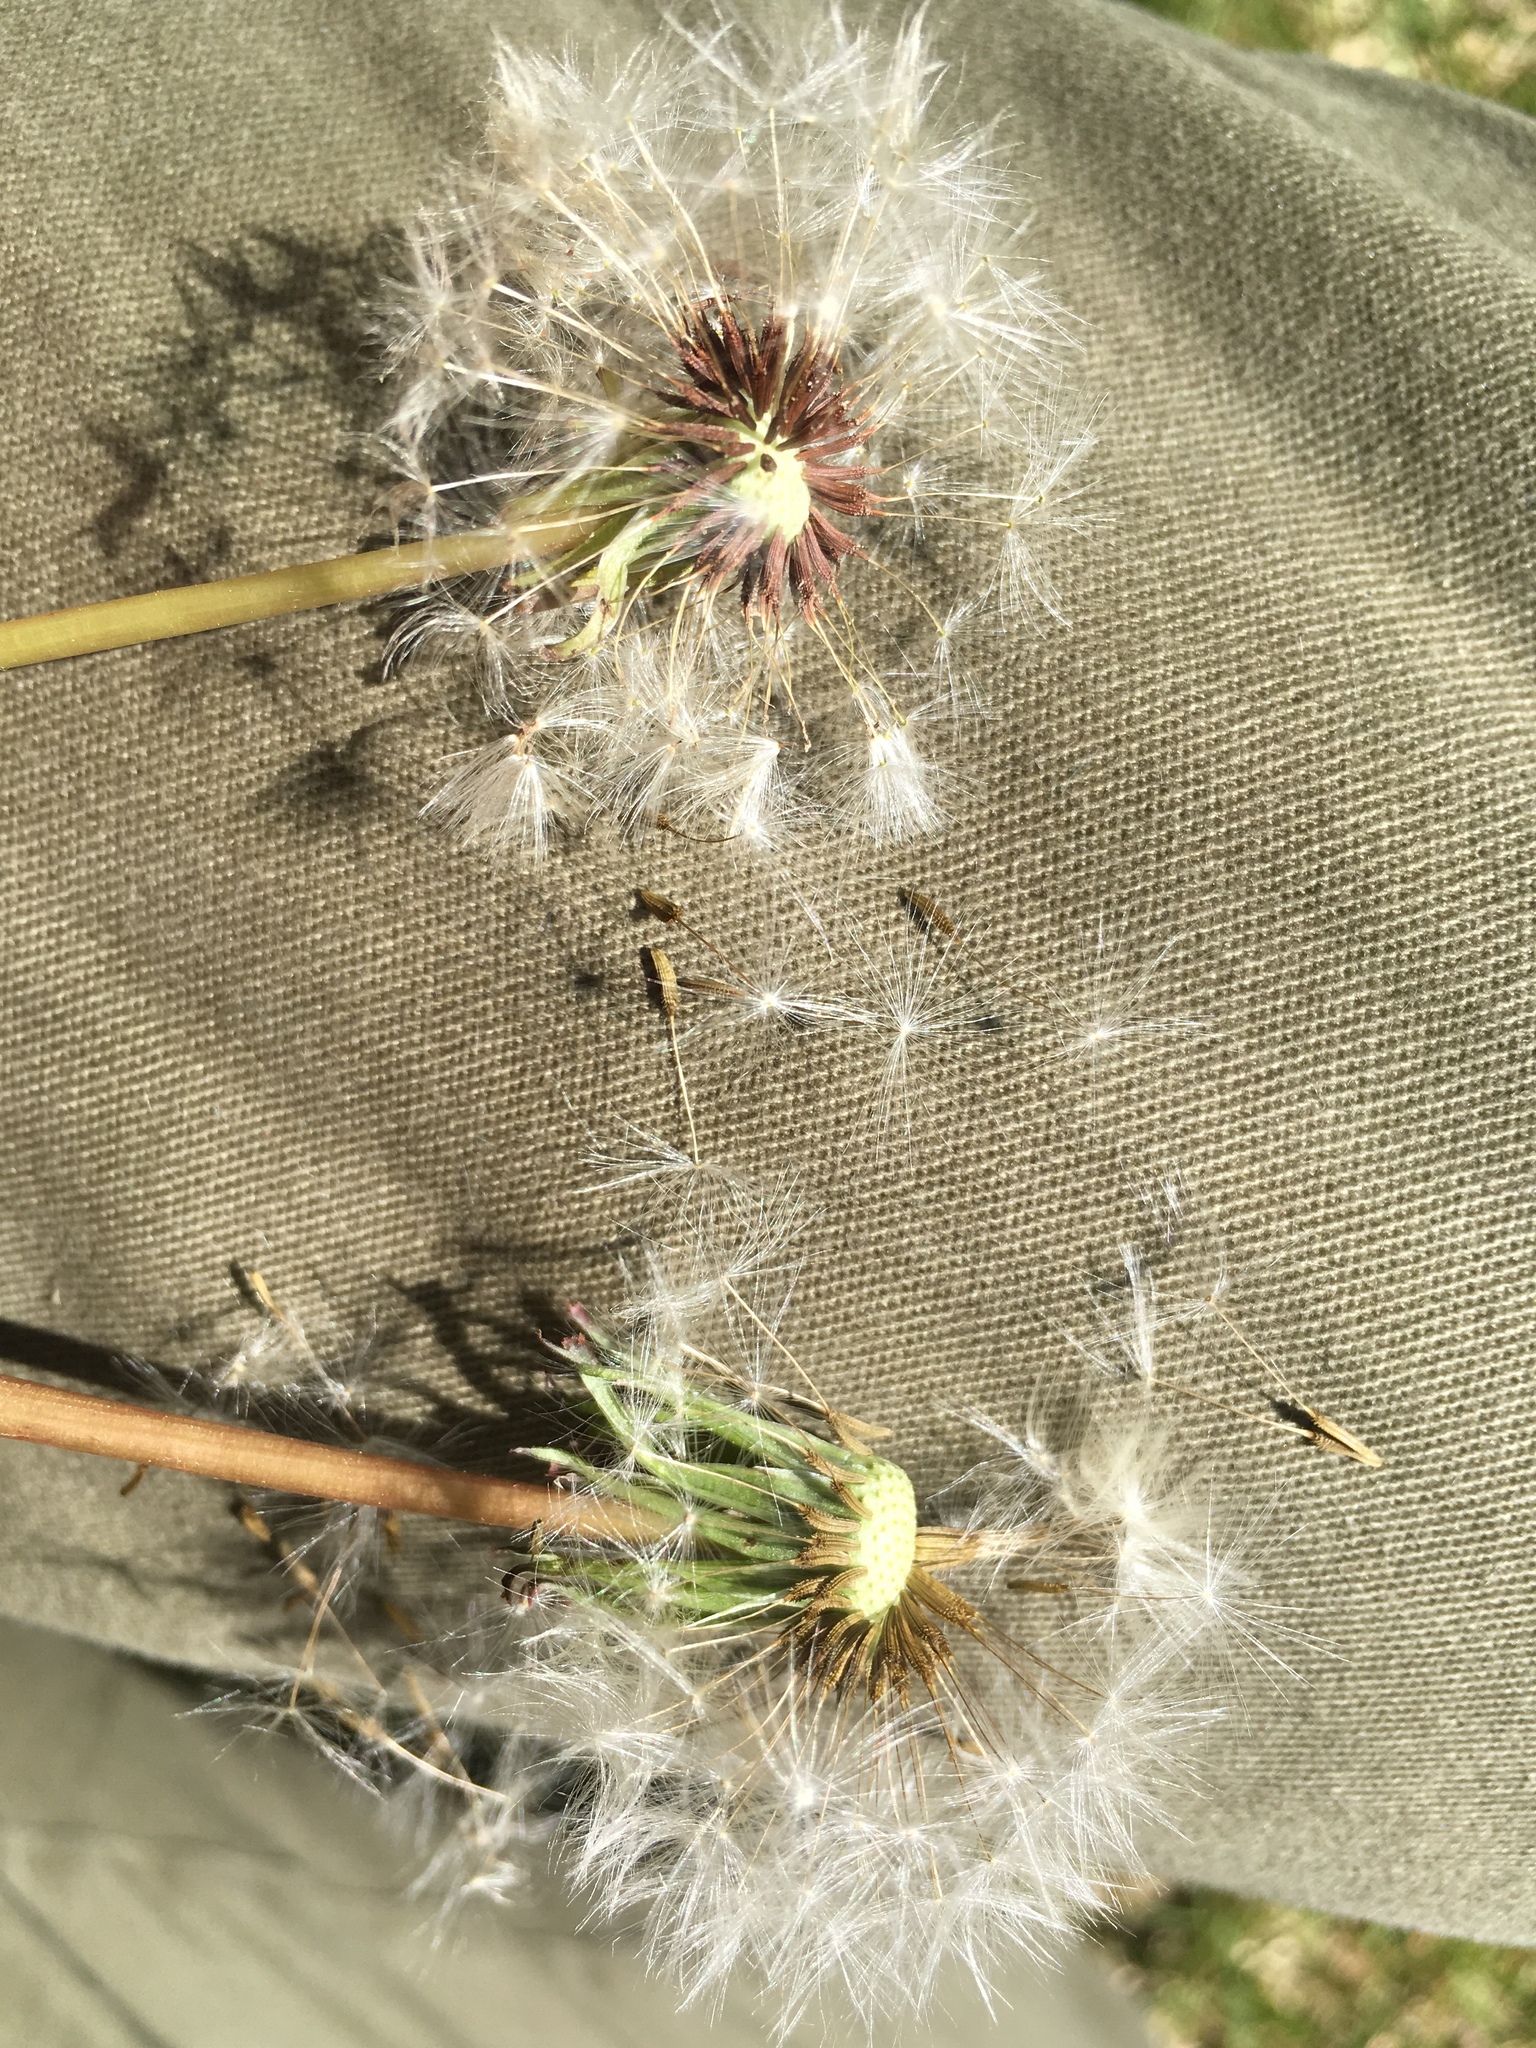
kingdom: Plantae
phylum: Tracheophyta
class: Magnoliopsida
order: Asterales
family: Asteraceae
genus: Taraxacum
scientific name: Taraxacum erythrospermum
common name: Rock dandelion
